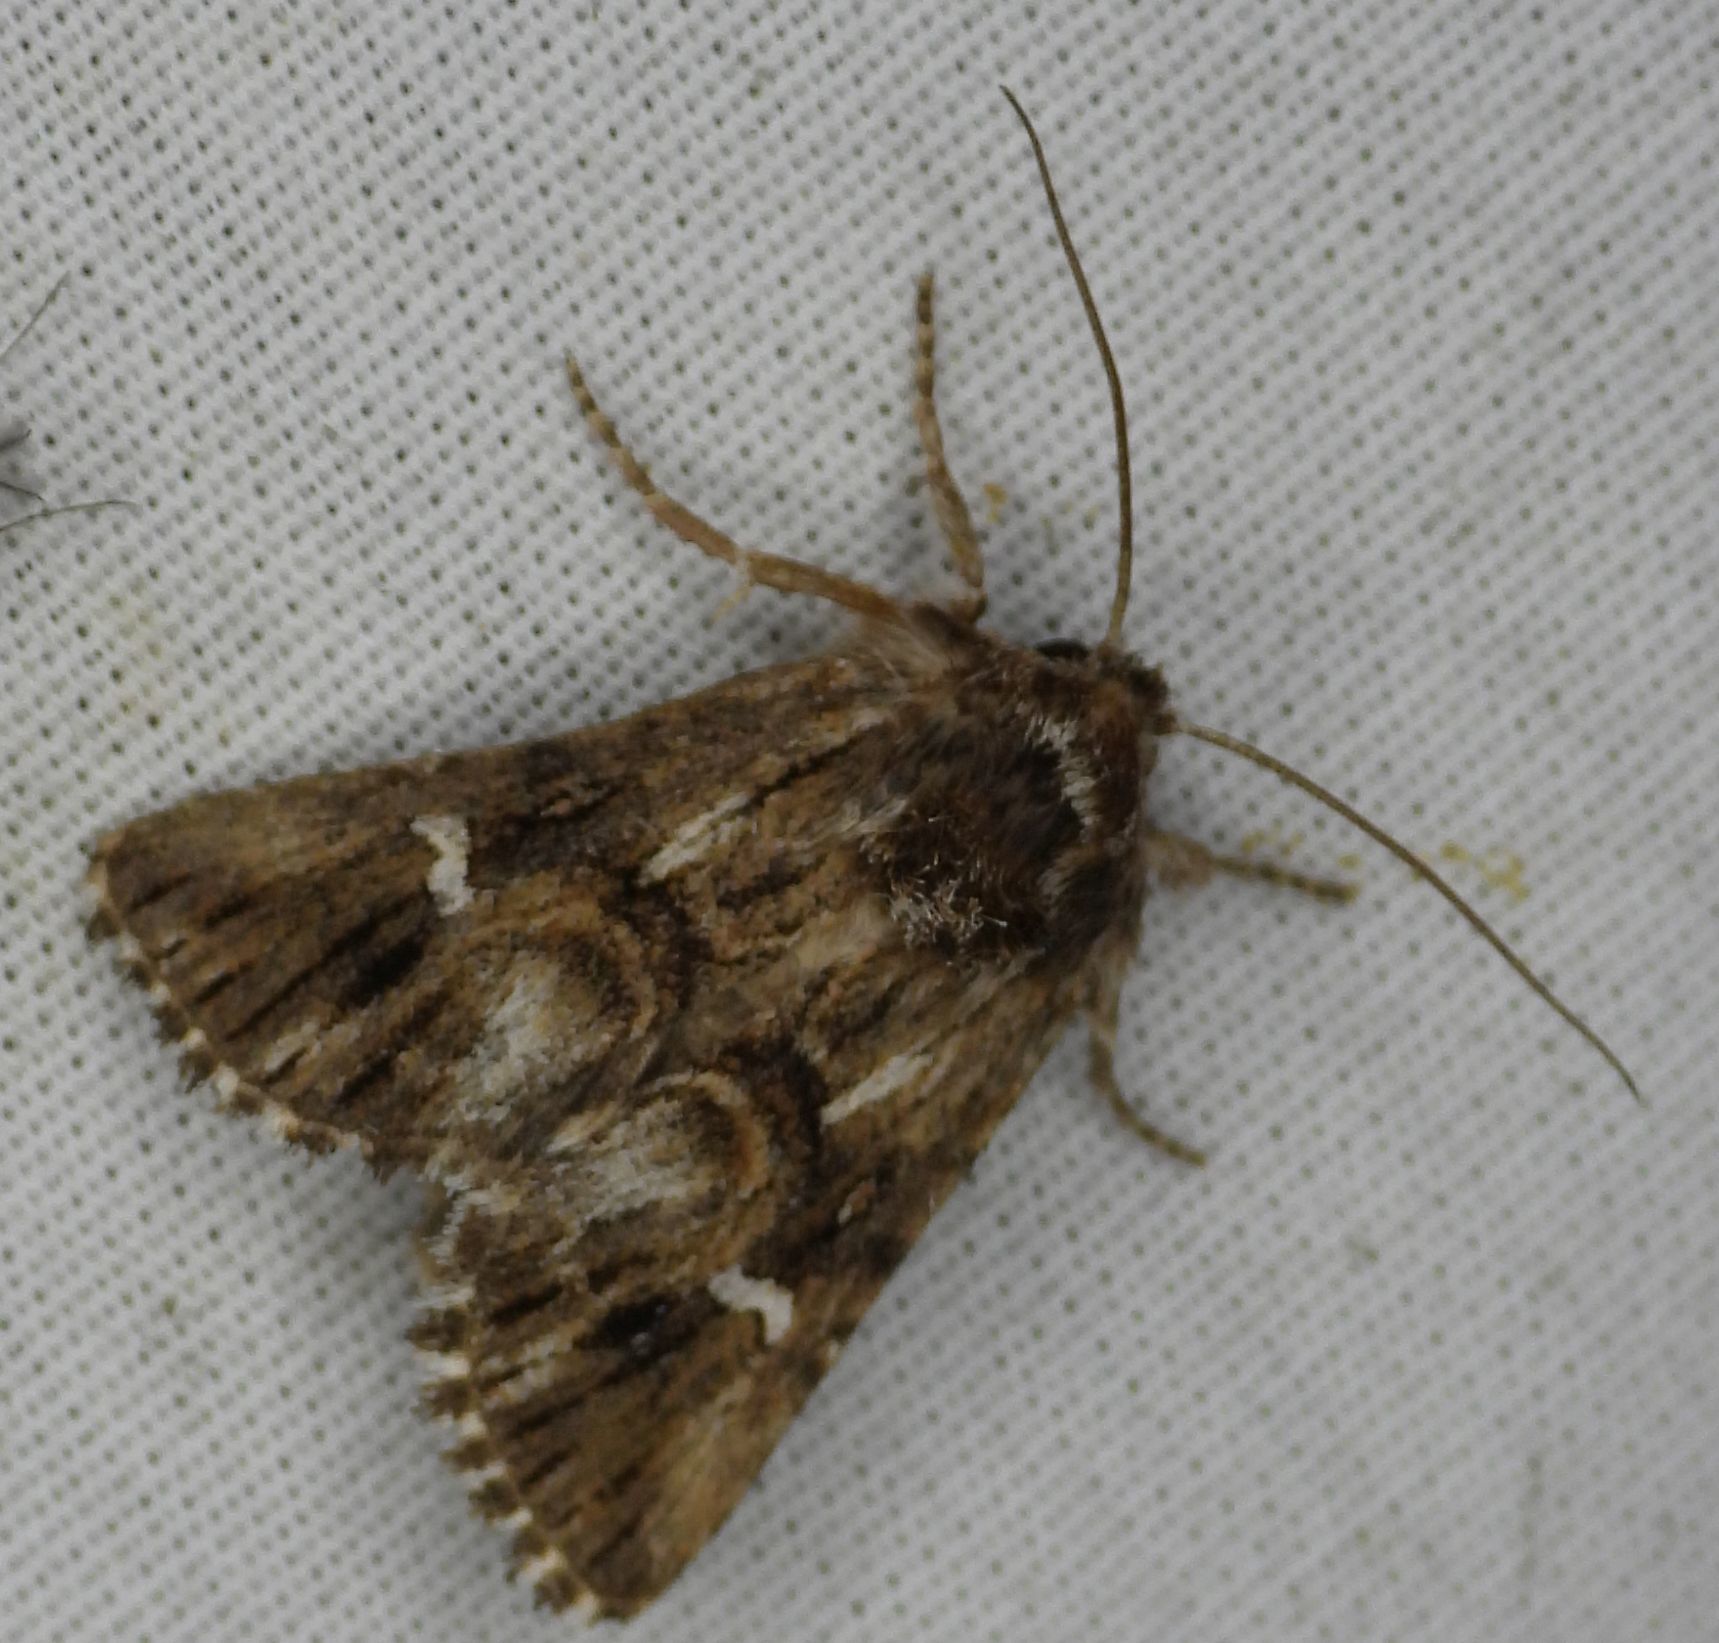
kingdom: Animalia
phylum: Arthropoda
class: Insecta
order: Lepidoptera
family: Noctuidae
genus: Calophasia
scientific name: Calophasia lunula
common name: Toadflax brocade
